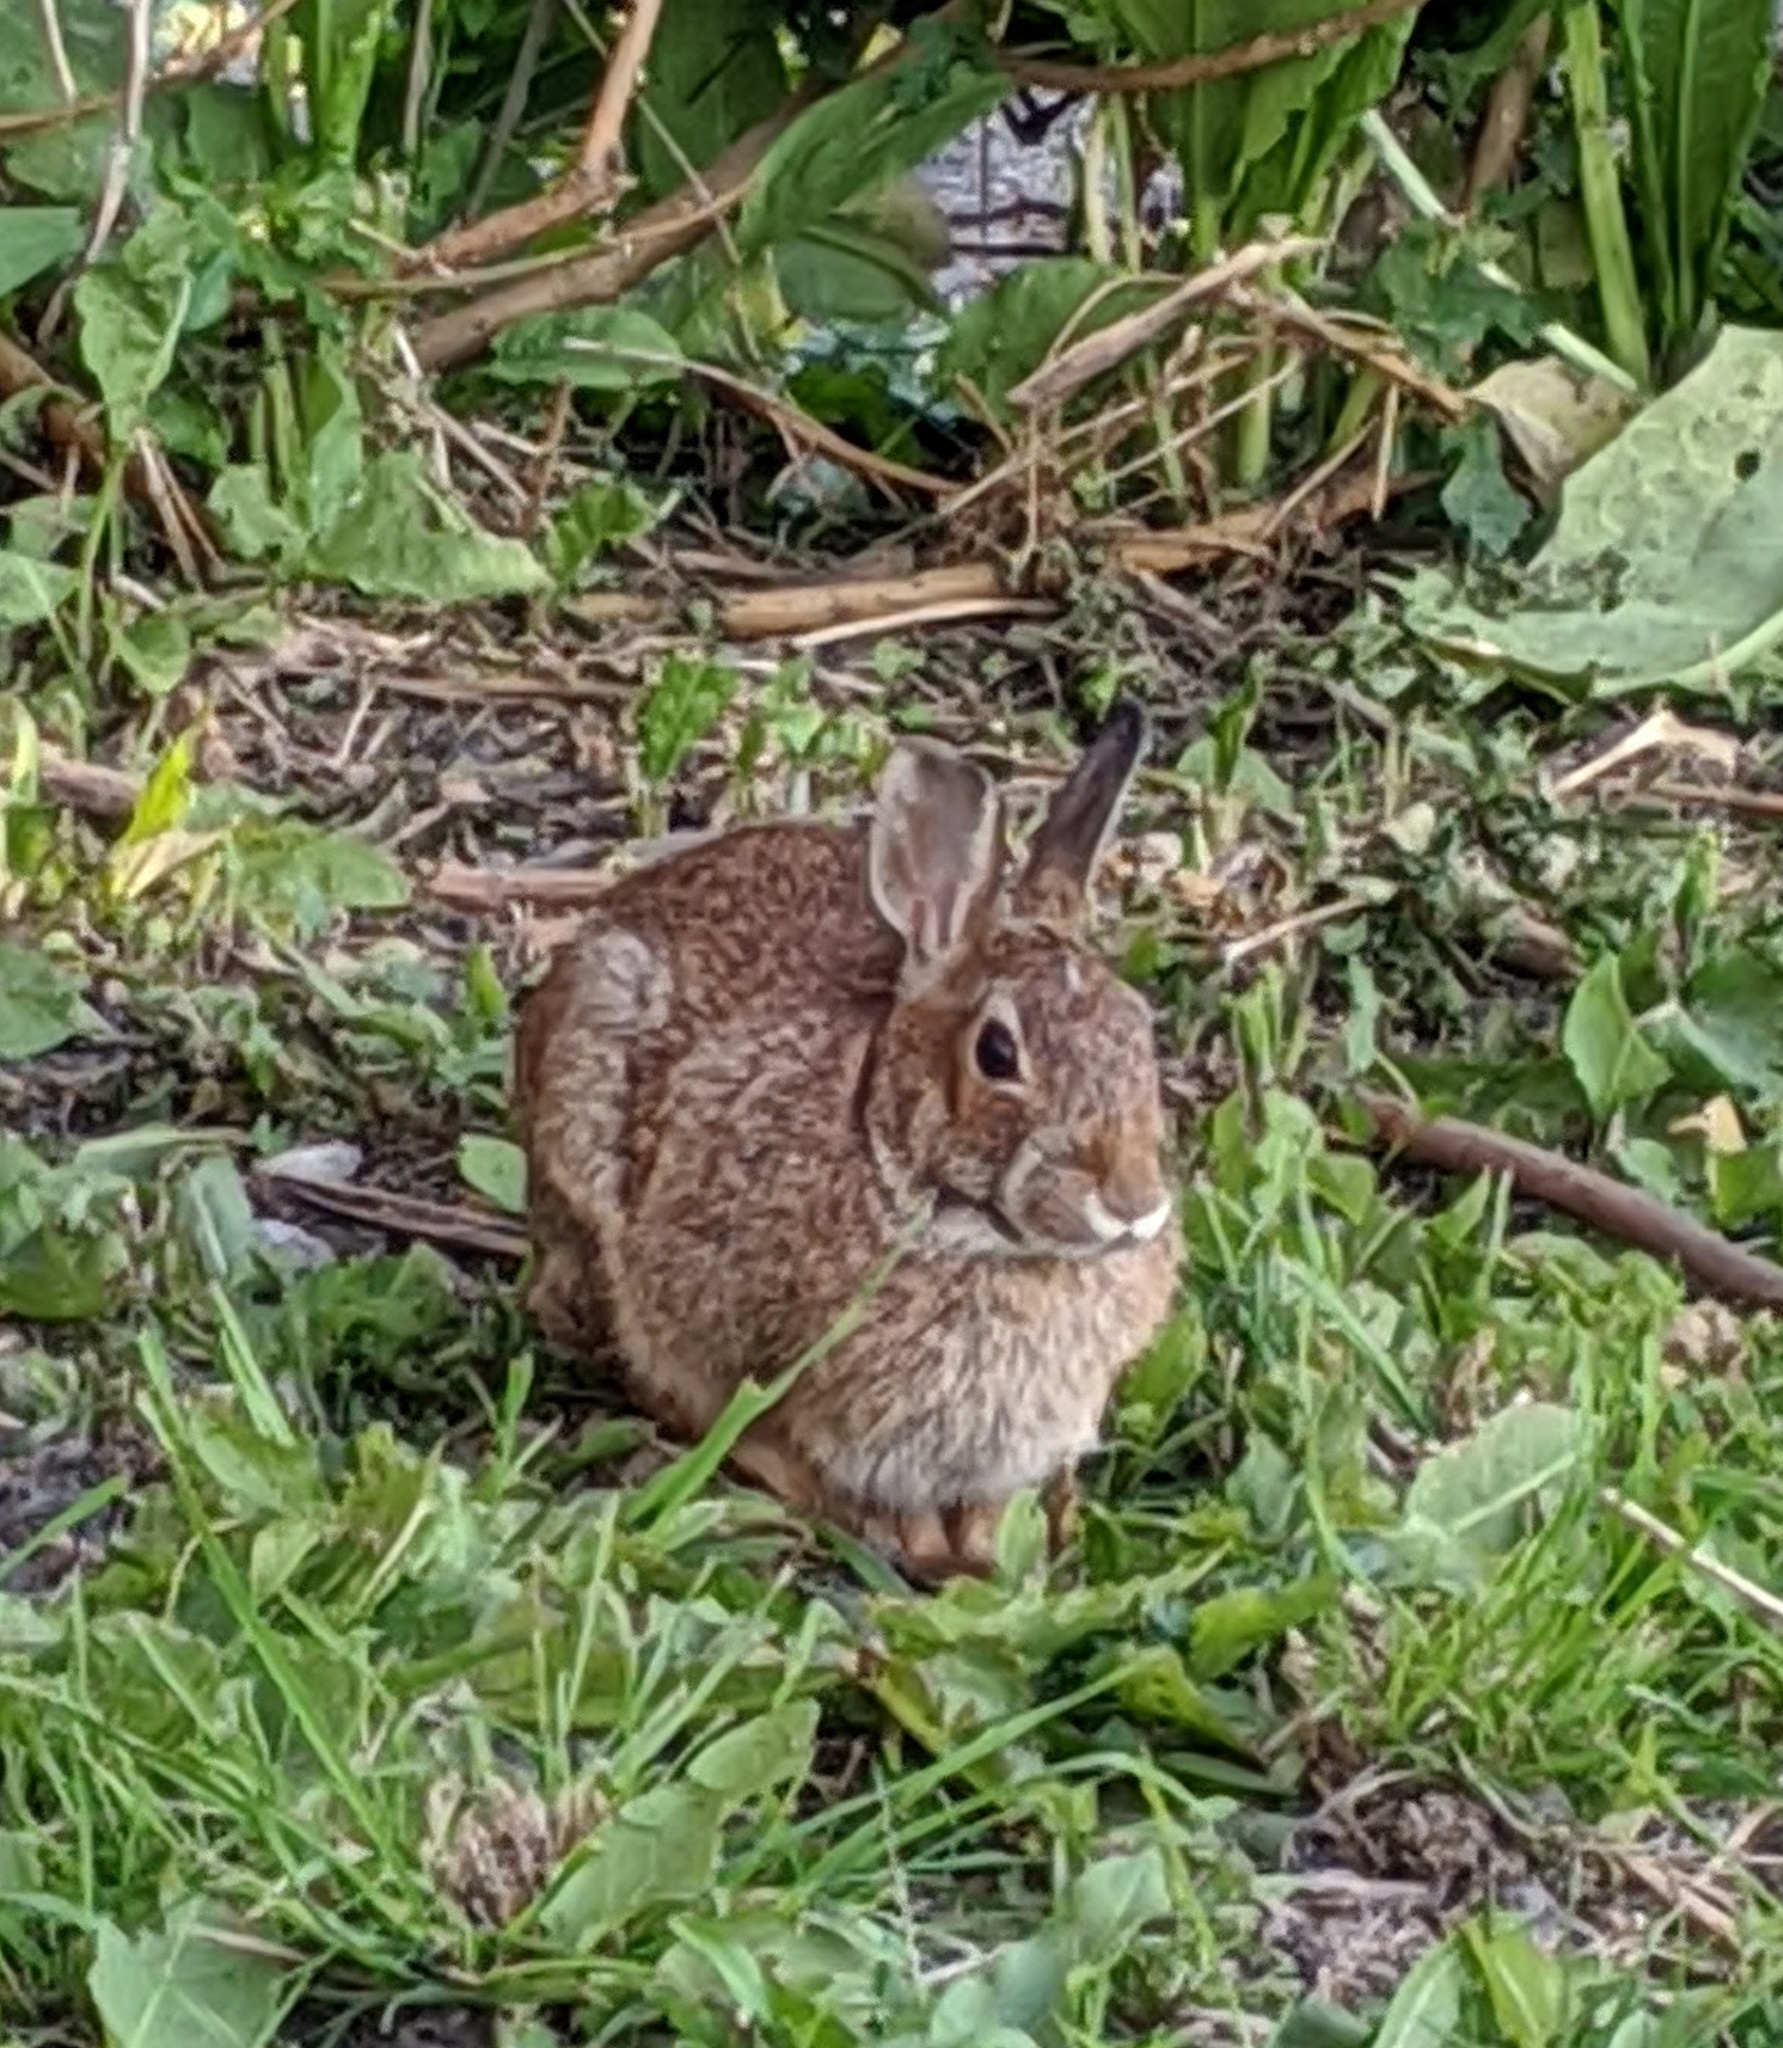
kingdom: Animalia
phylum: Chordata
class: Mammalia
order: Lagomorpha
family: Leporidae
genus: Sylvilagus
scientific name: Sylvilagus floridanus
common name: Eastern cottontail
